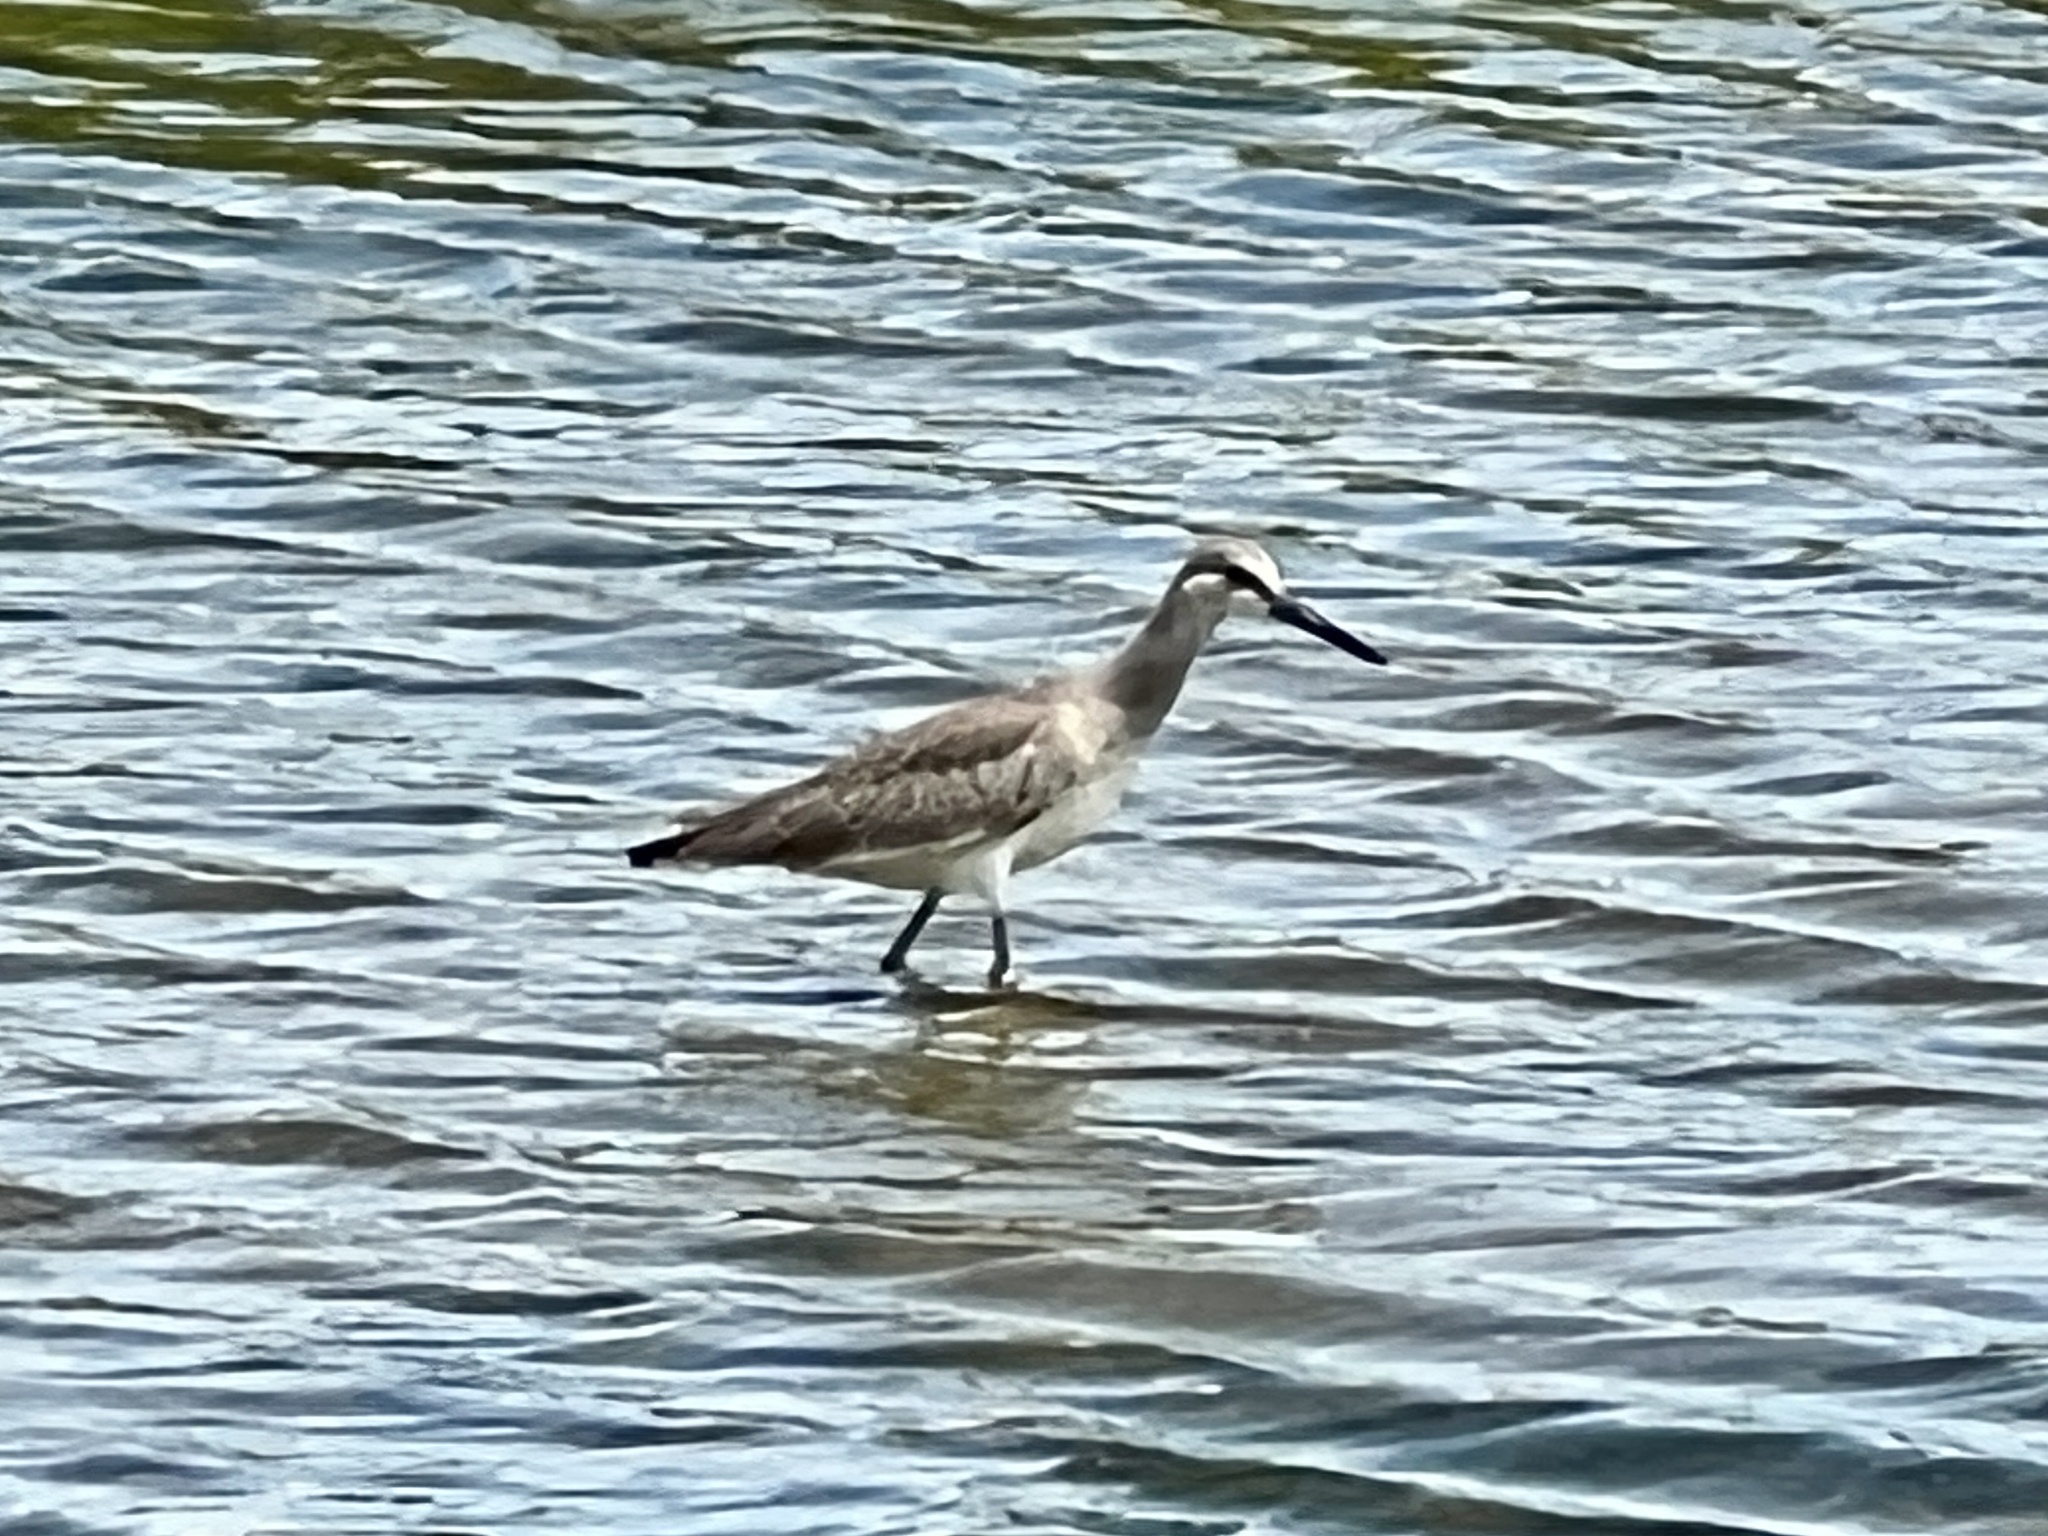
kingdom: Animalia
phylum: Chordata
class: Aves
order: Charadriiformes
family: Scolopacidae
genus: Tringa
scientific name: Tringa semipalmata
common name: Willet
